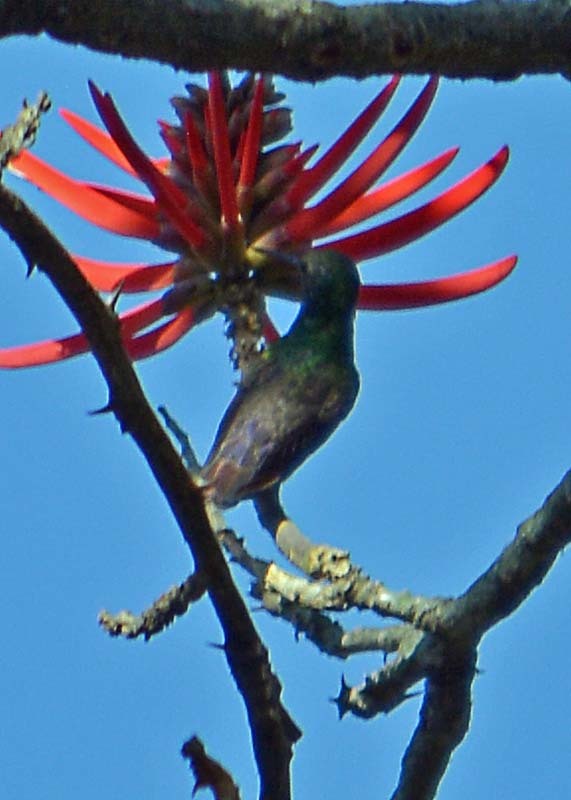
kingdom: Animalia
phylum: Chordata
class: Aves
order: Apodiformes
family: Trochilidae
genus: Cynanthus
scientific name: Cynanthus latirostris
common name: Broad-billed hummingbird
